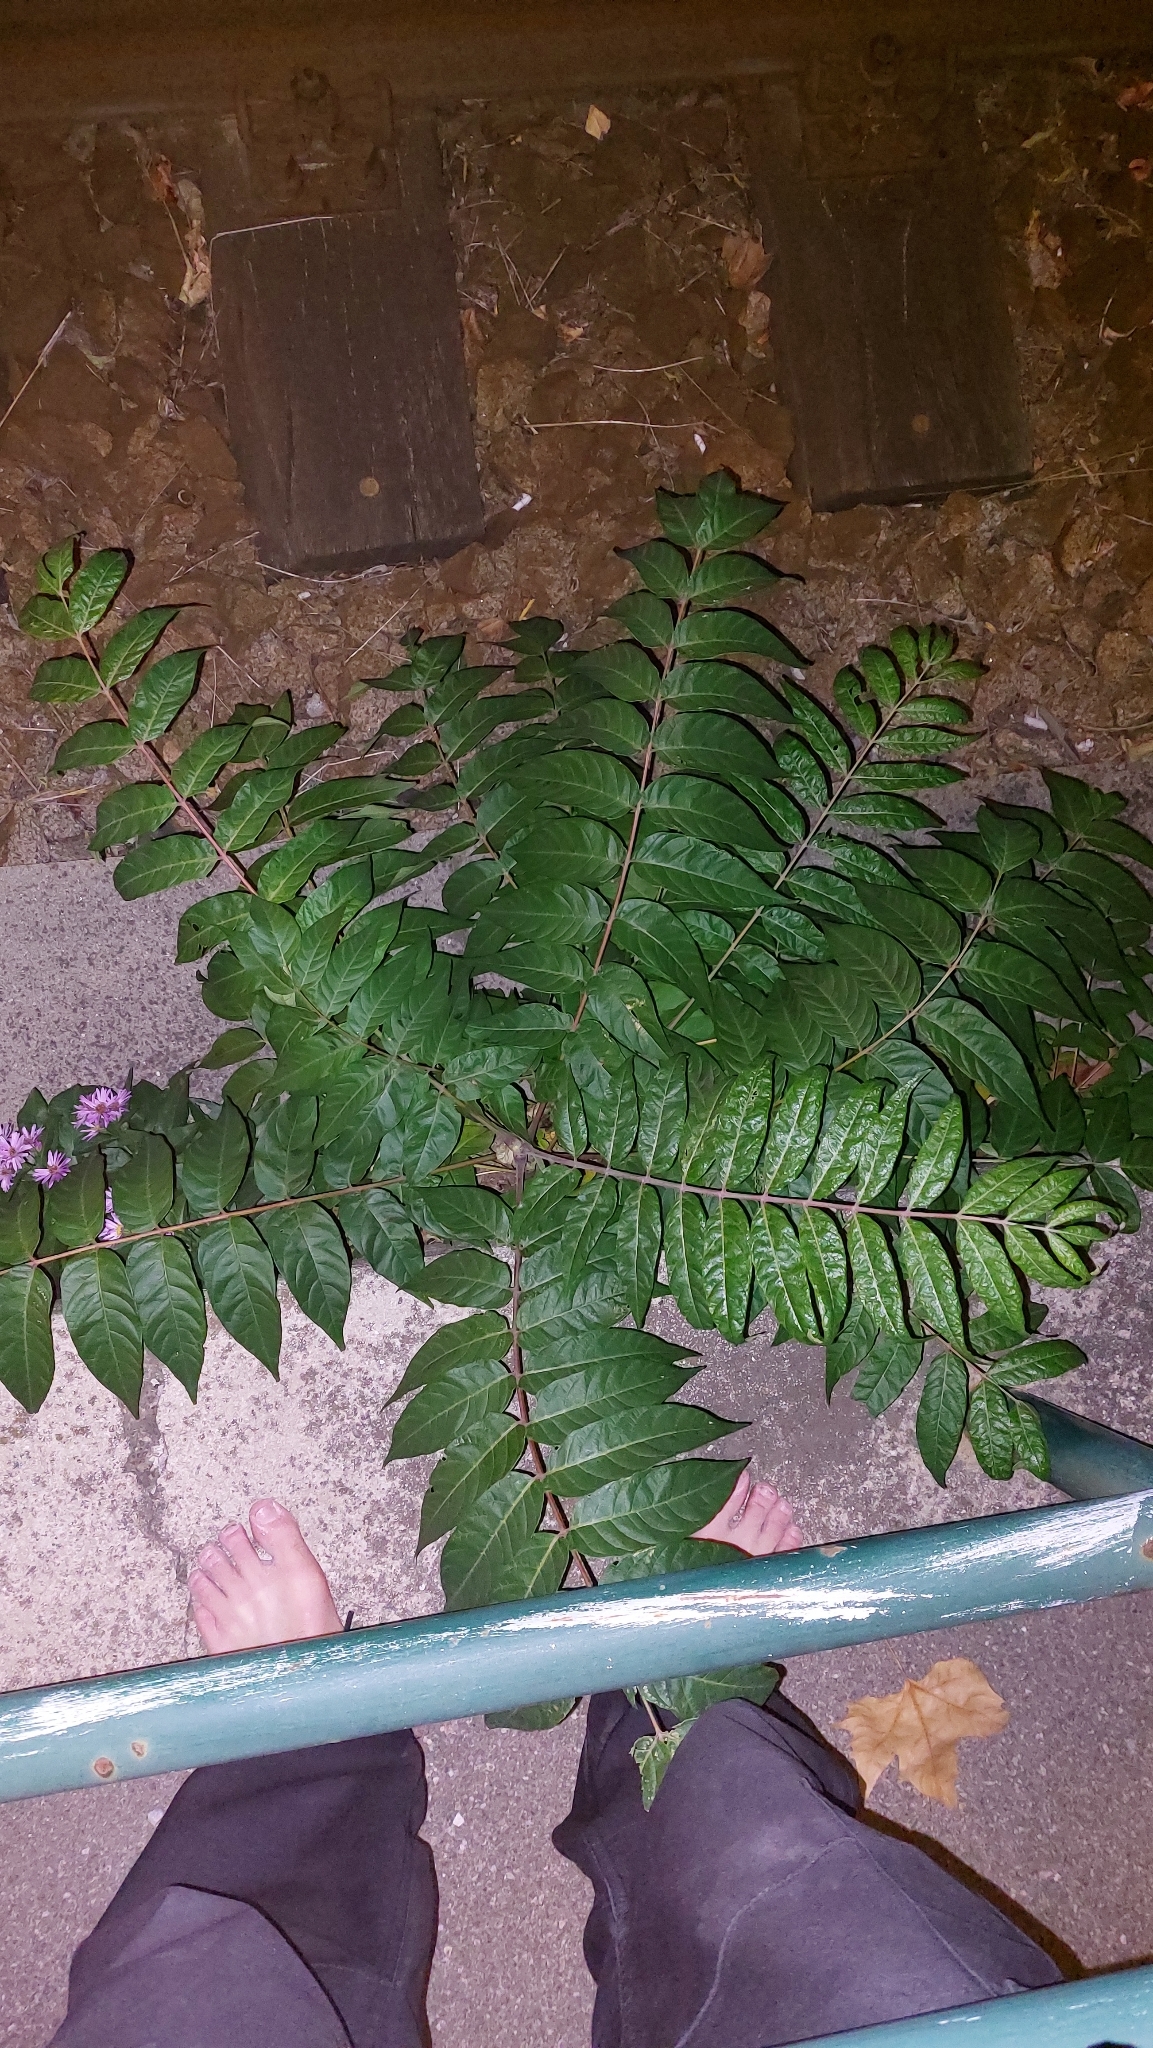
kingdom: Plantae
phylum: Tracheophyta
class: Magnoliopsida
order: Sapindales
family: Simaroubaceae
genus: Ailanthus
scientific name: Ailanthus altissima
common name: Tree-of-heaven
